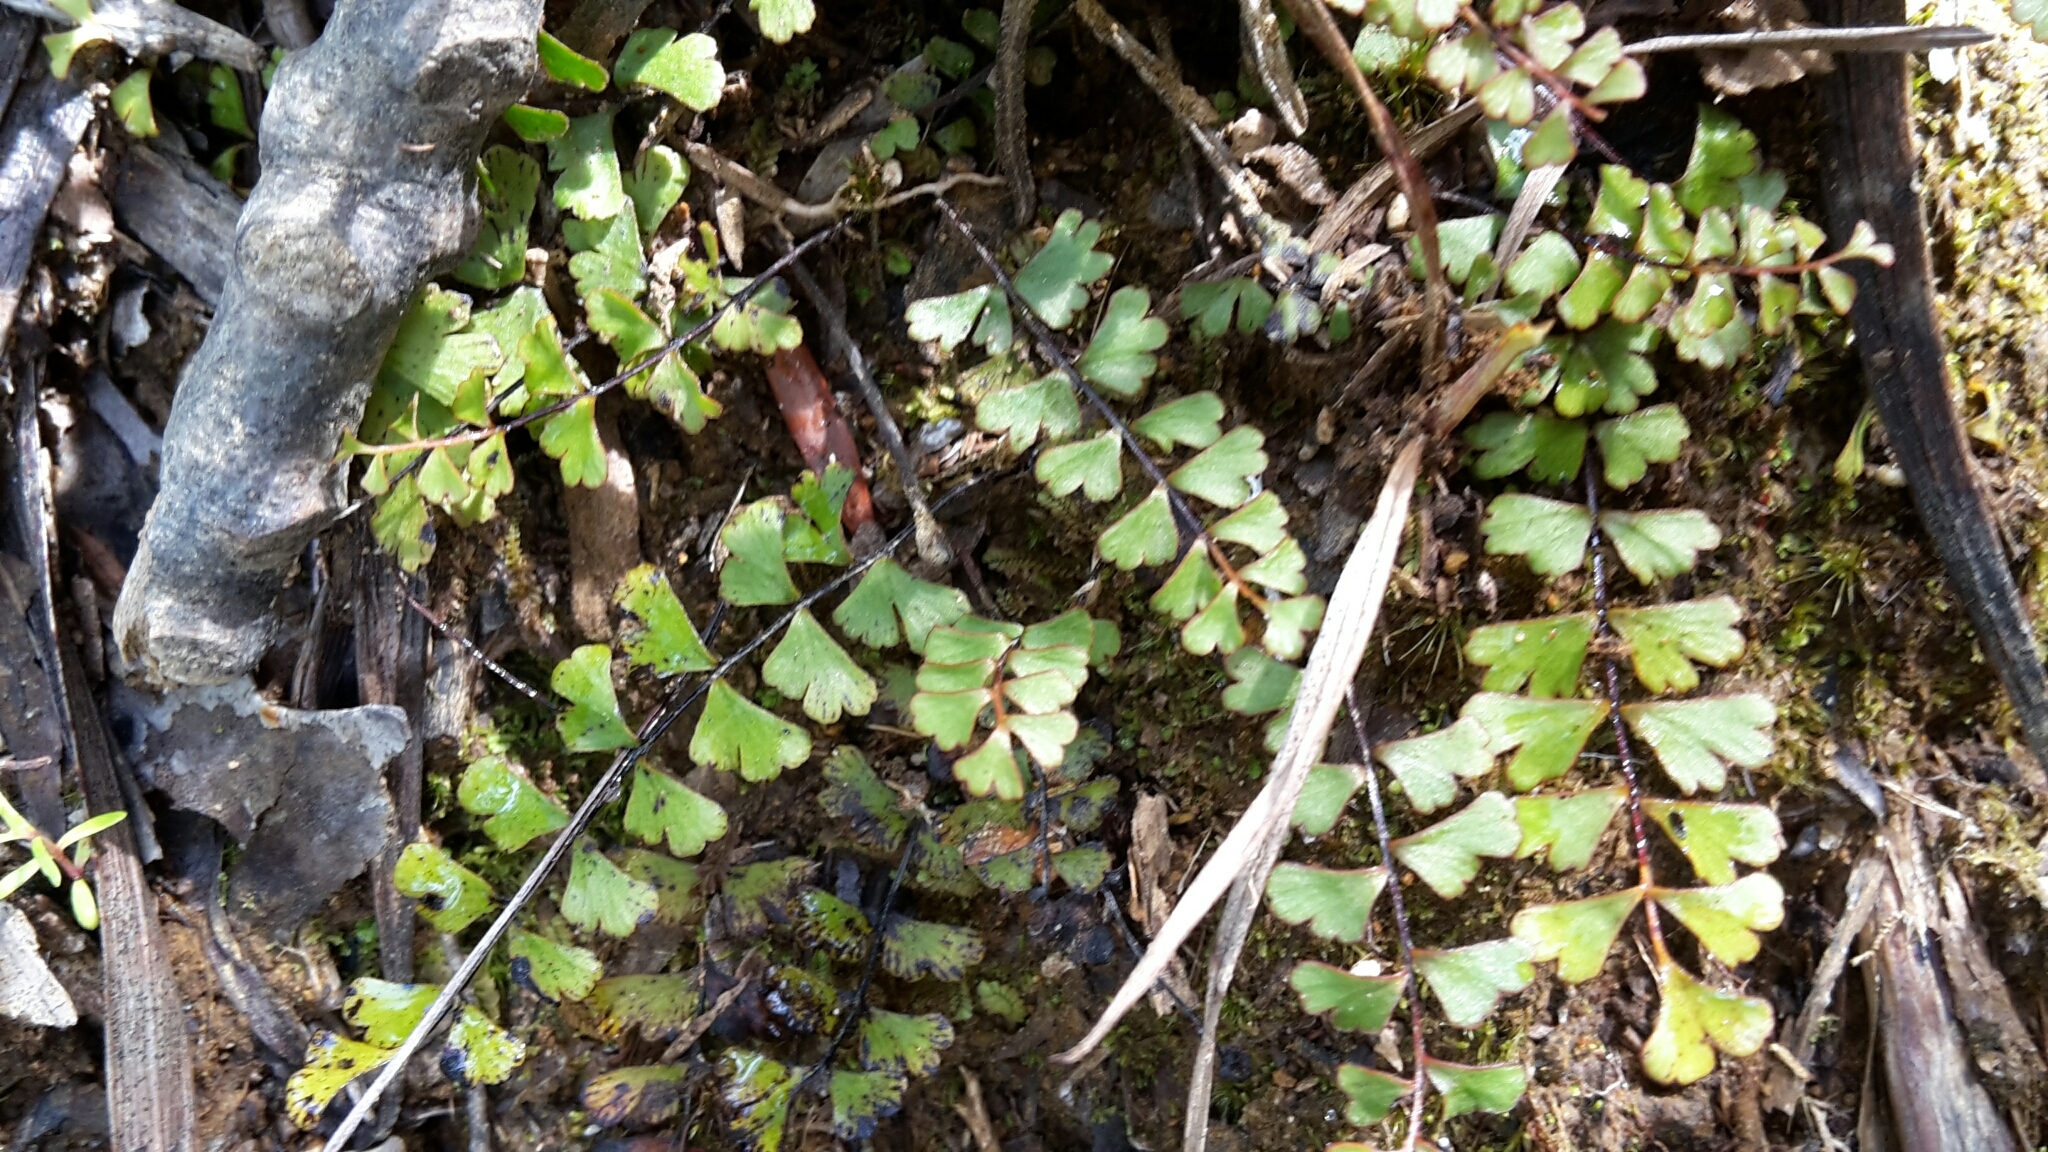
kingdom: Plantae
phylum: Tracheophyta
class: Polypodiopsida
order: Polypodiales
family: Lindsaeaceae
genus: Lindsaea
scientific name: Lindsaea linearis
